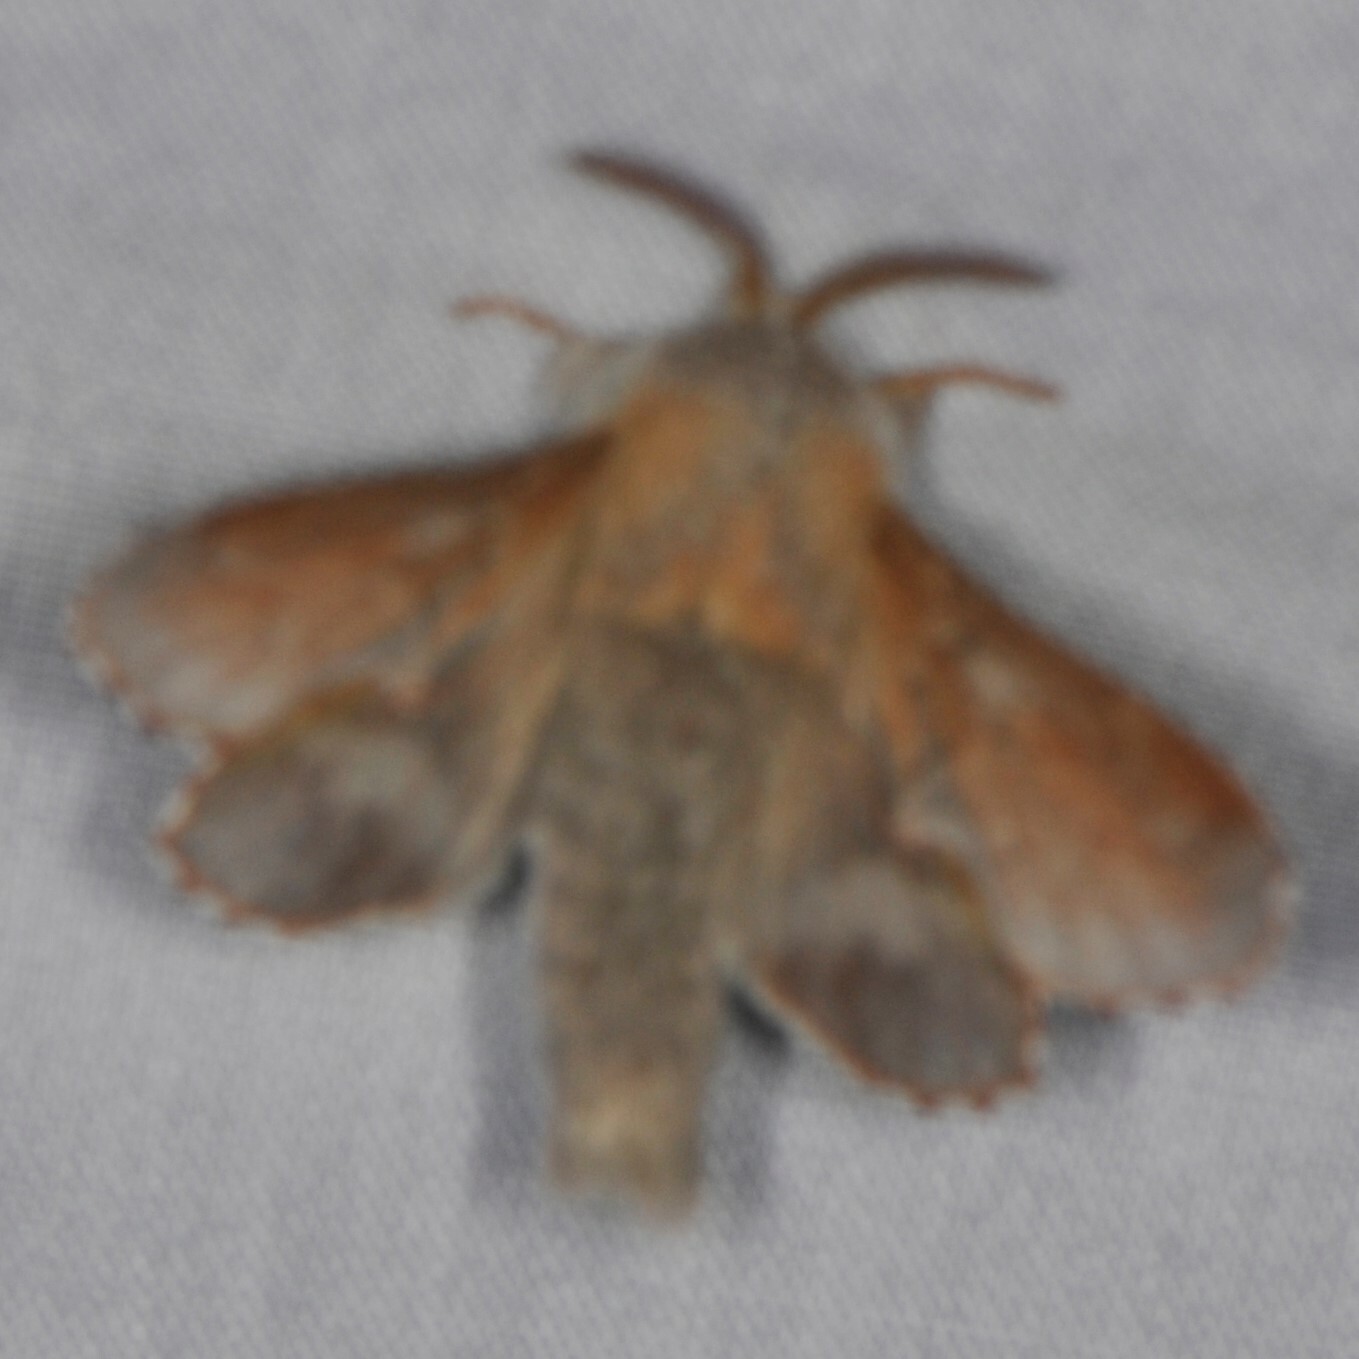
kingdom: Animalia
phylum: Arthropoda
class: Insecta
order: Lepidoptera
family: Lasiocampidae
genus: Phyllodesma
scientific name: Phyllodesma americana
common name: American lappet moth
